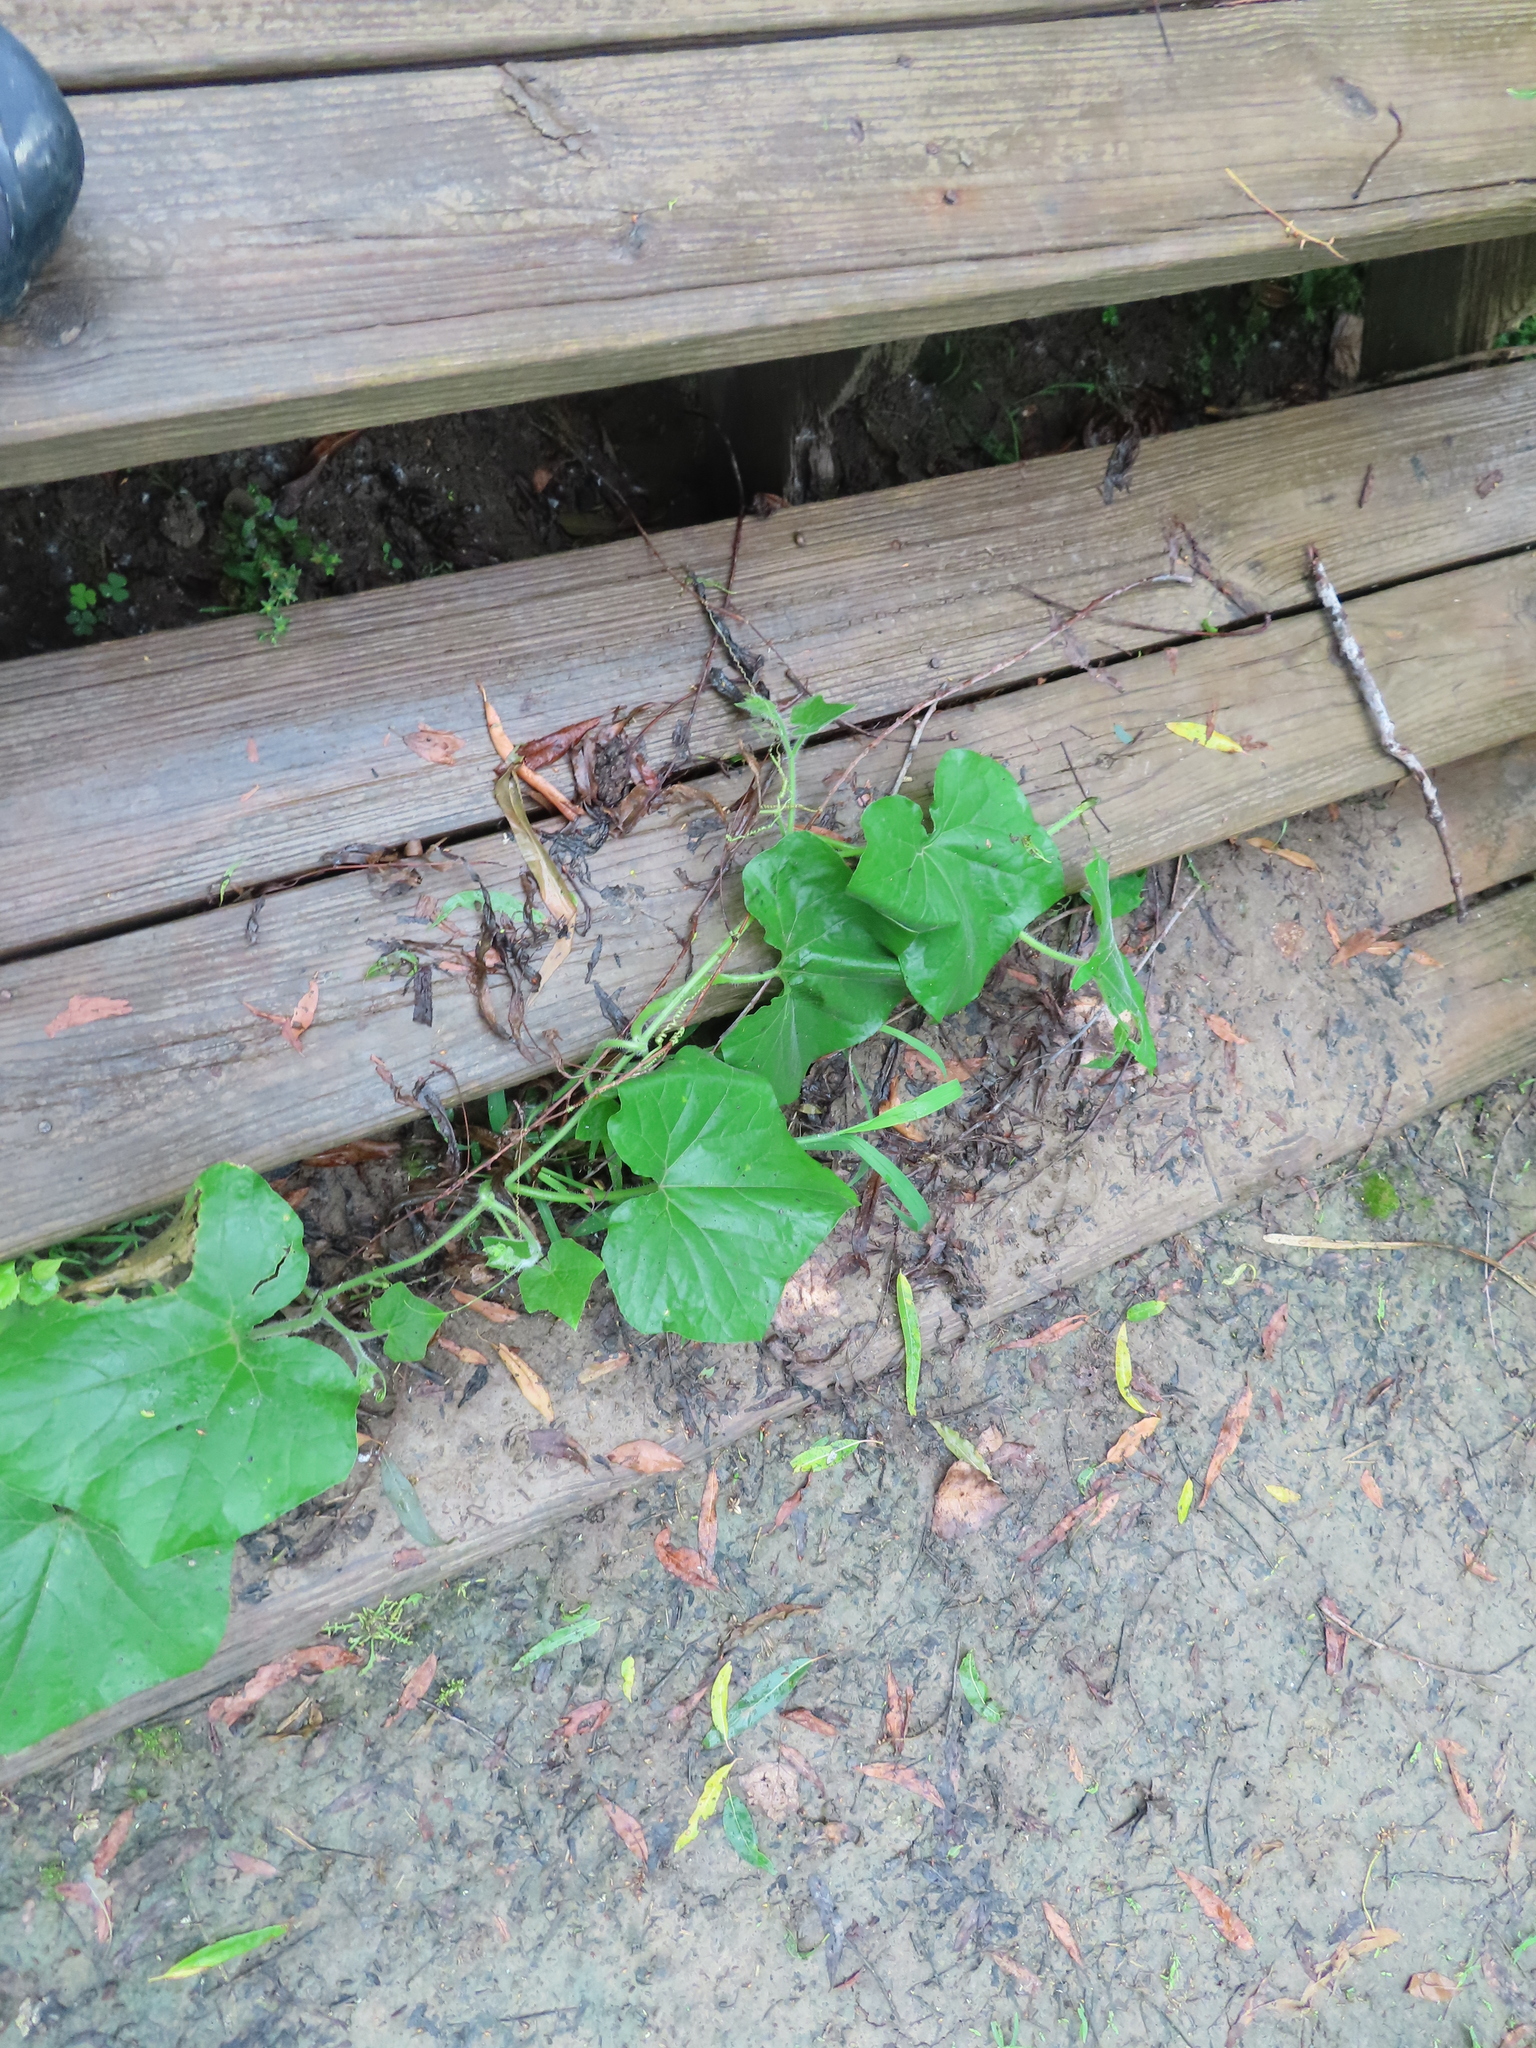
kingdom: Plantae
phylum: Tracheophyta
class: Magnoliopsida
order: Cucurbitales
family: Cucurbitaceae
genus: Sicyos
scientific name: Sicyos angulatus
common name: Angled burr cucumber
